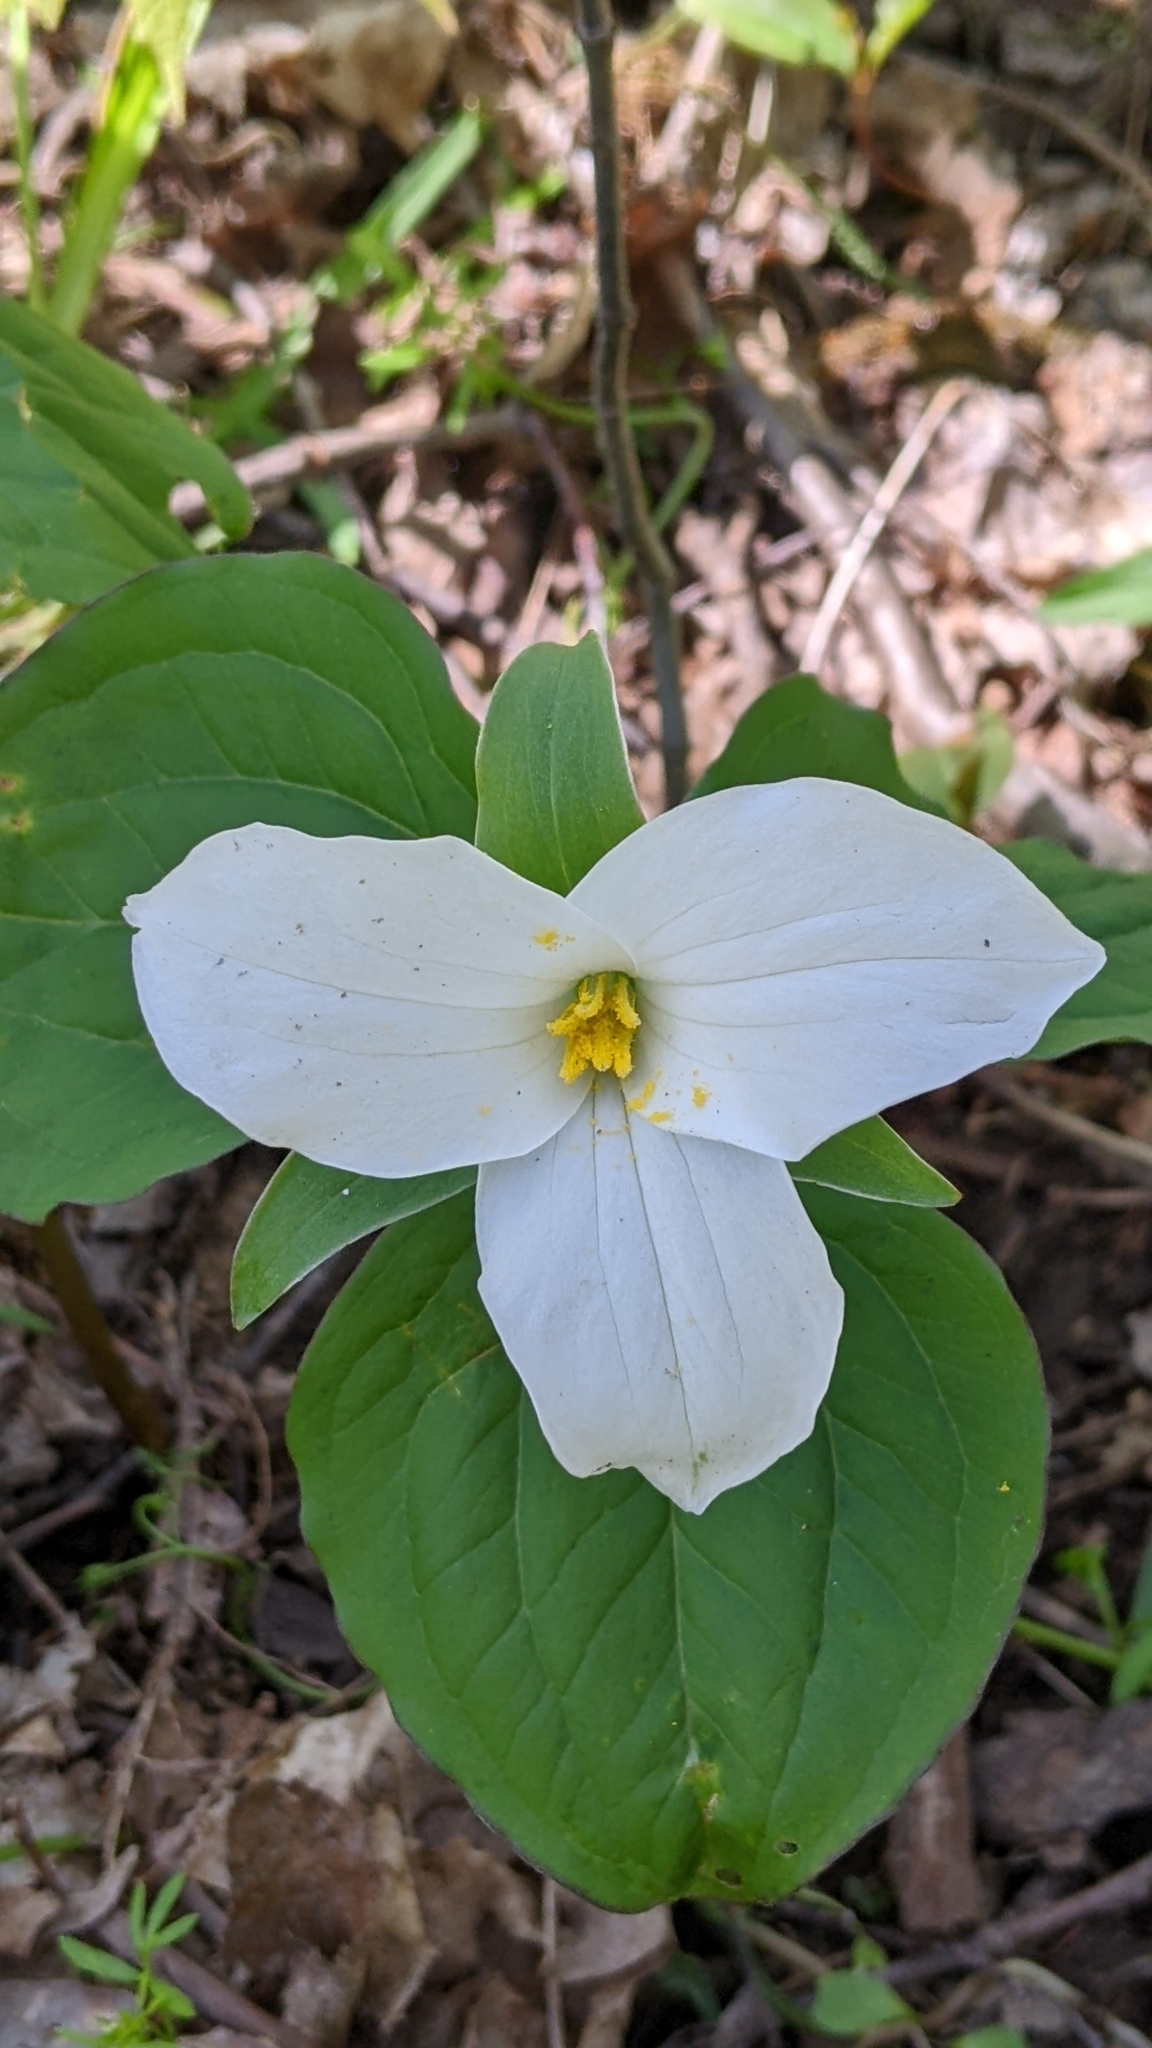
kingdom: Plantae
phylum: Tracheophyta
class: Liliopsida
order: Liliales
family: Melanthiaceae
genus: Trillium
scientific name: Trillium grandiflorum
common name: Great white trillium
